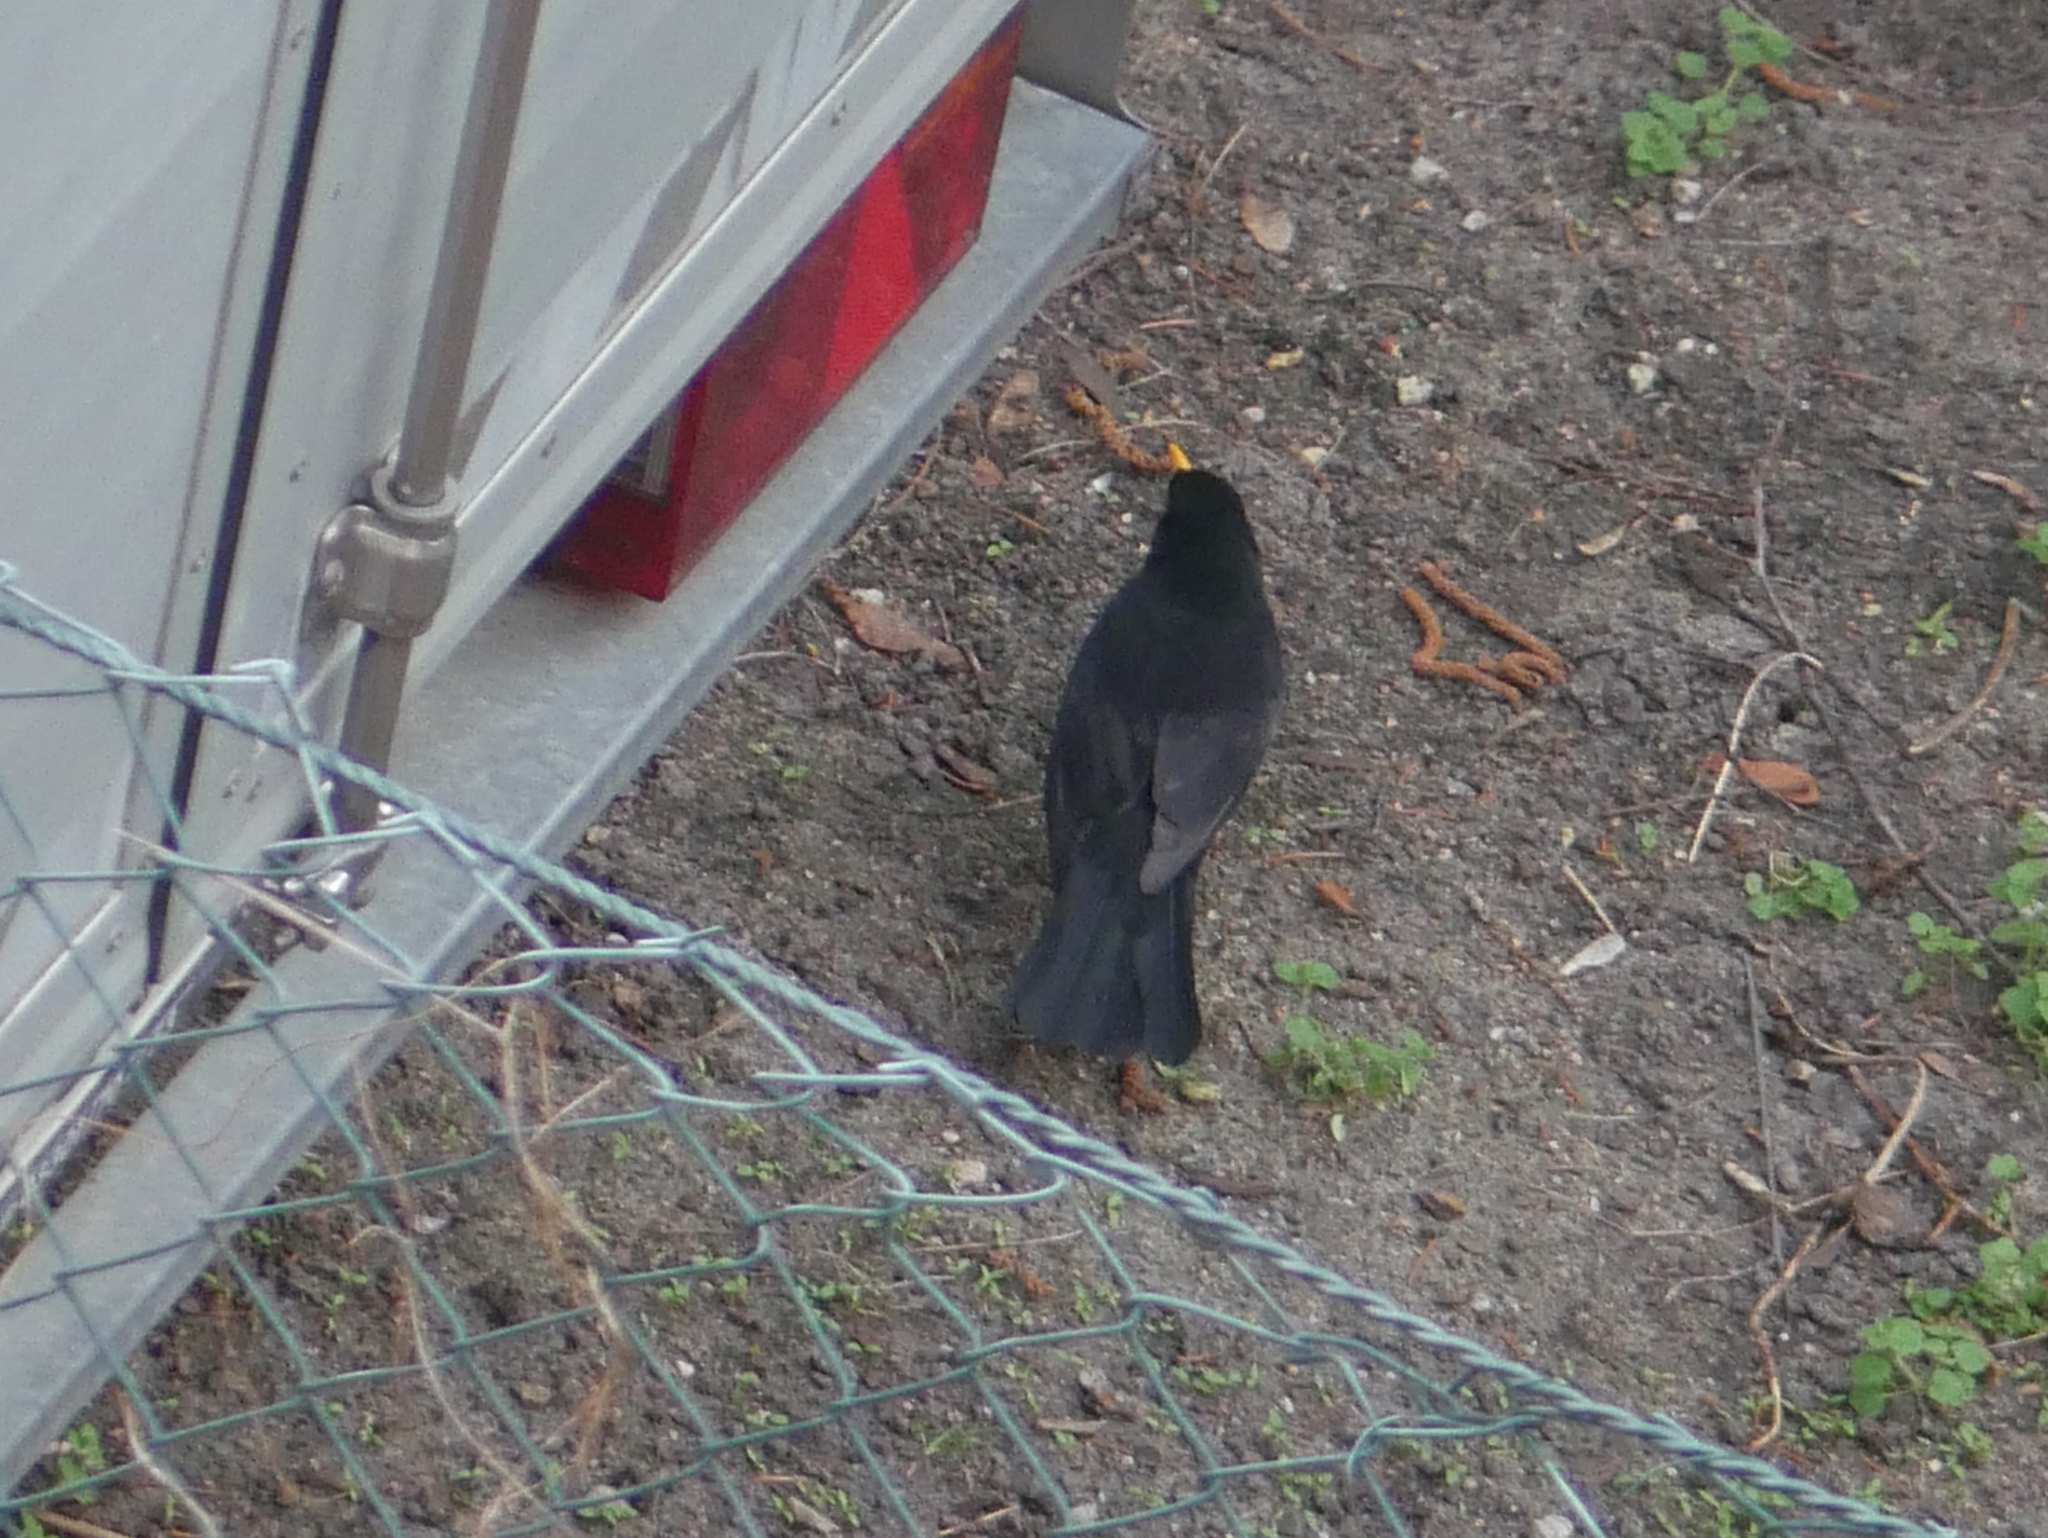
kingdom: Animalia
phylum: Chordata
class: Aves
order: Passeriformes
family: Turdidae
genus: Turdus
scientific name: Turdus merula
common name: Common blackbird
